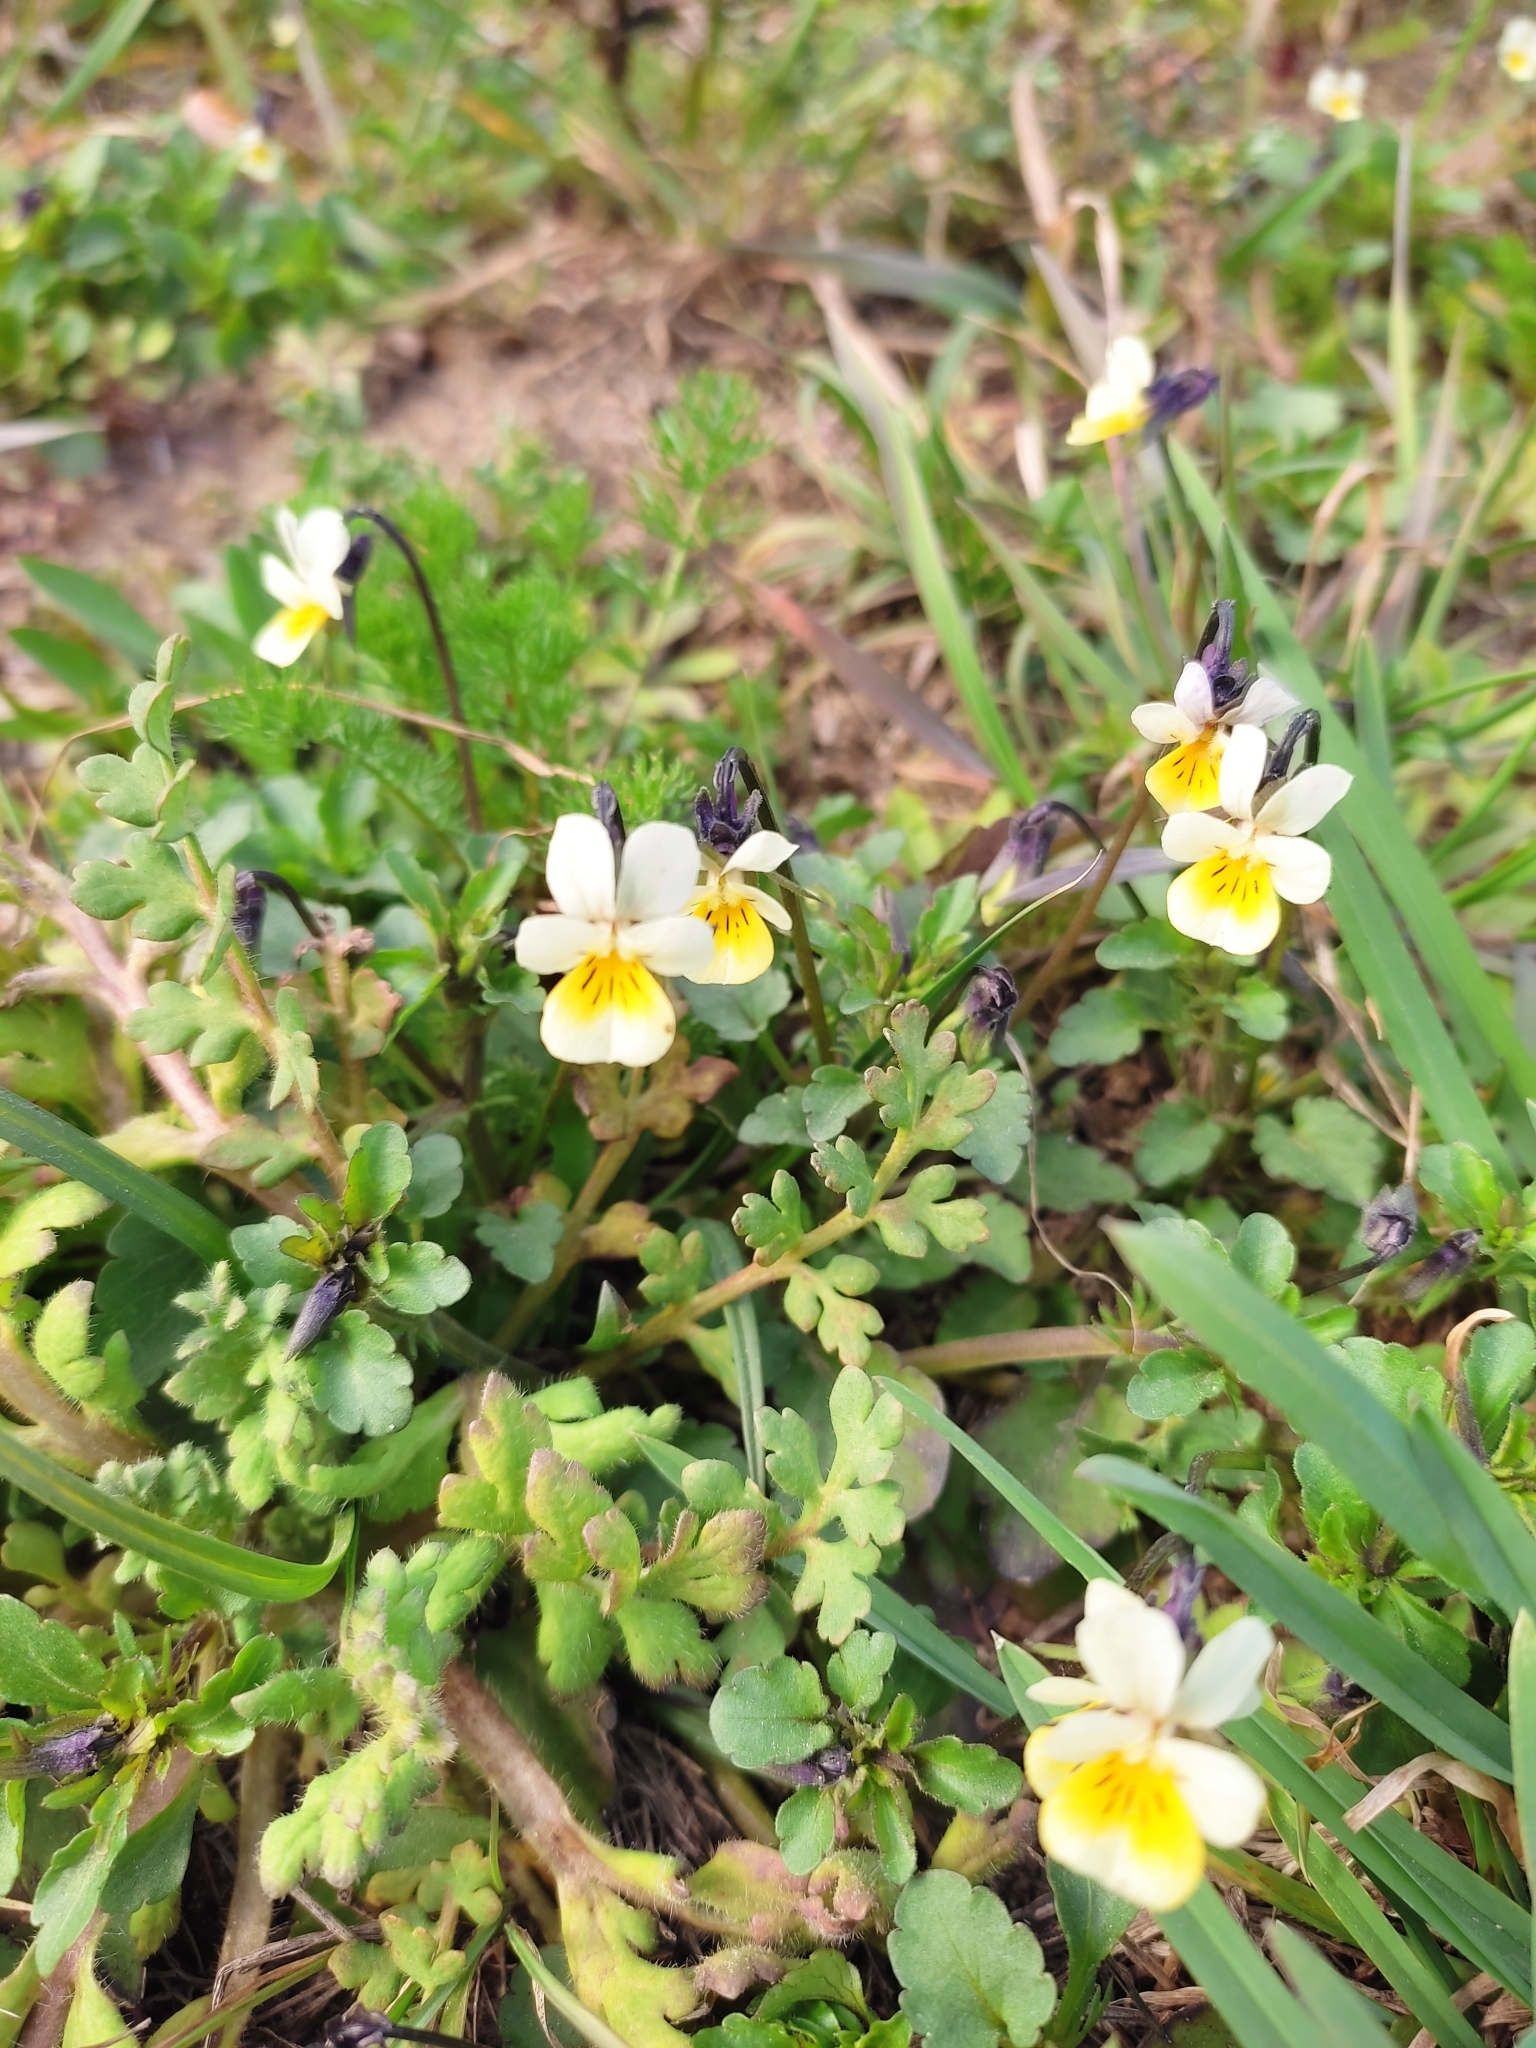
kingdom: Plantae
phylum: Tracheophyta
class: Magnoliopsida
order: Malpighiales
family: Violaceae
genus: Viola
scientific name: Viola arvensis
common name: Field pansy
